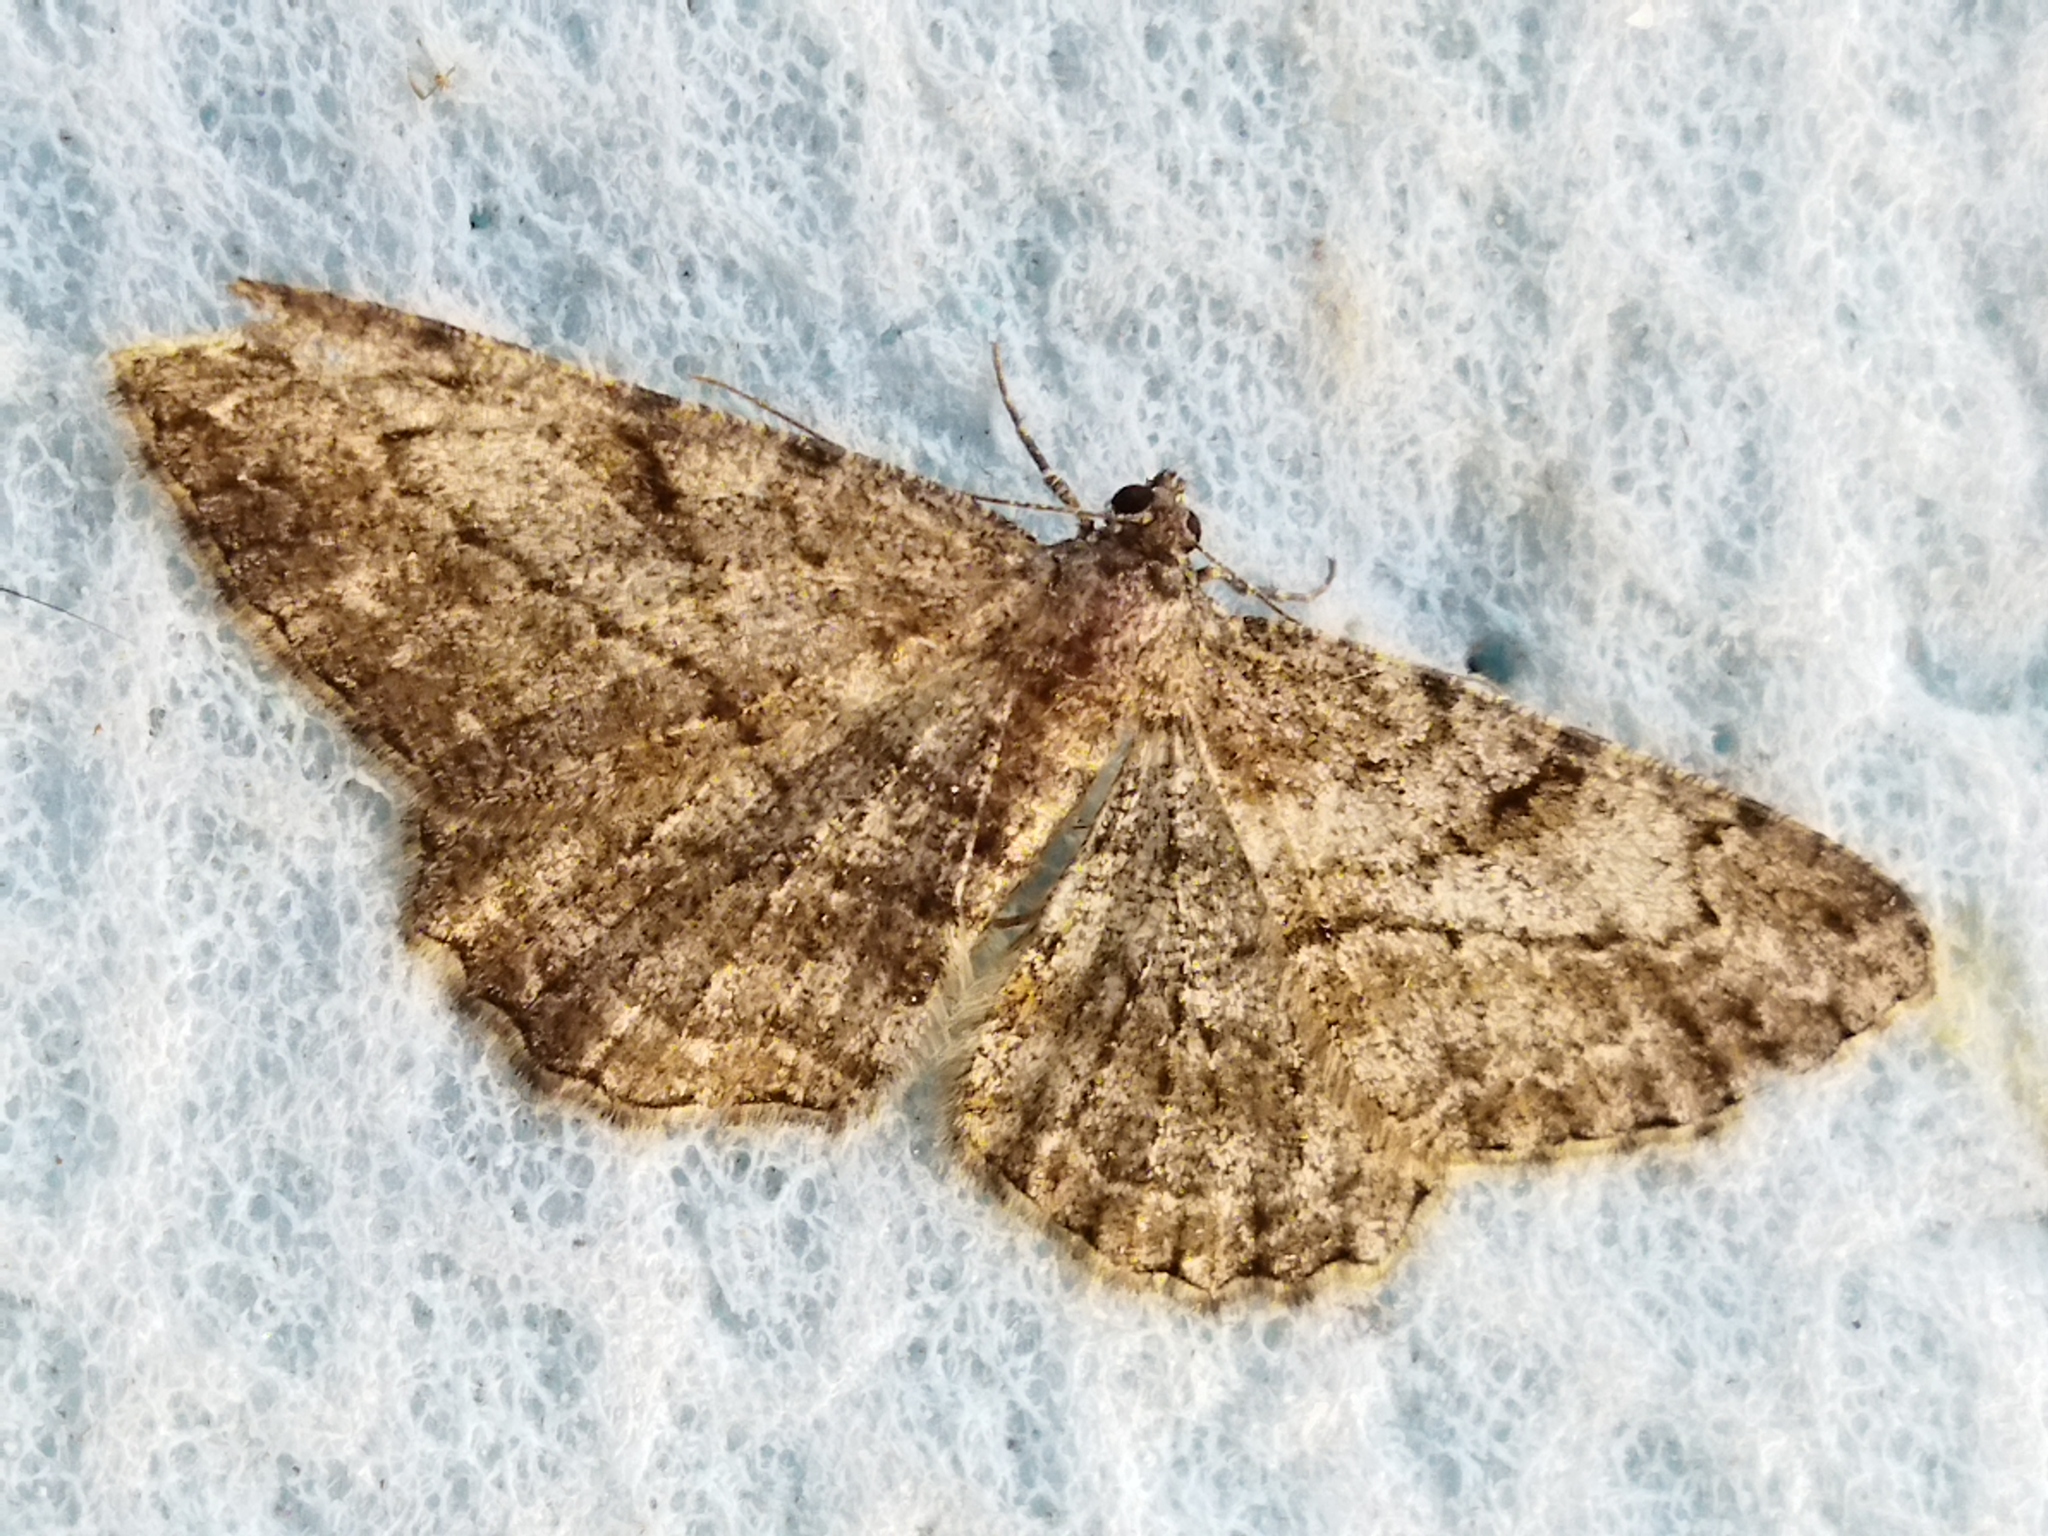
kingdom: Animalia
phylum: Arthropoda
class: Insecta
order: Lepidoptera
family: Geometridae
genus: Peribatodes
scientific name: Peribatodes rhomboidaria
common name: Willow beauty
